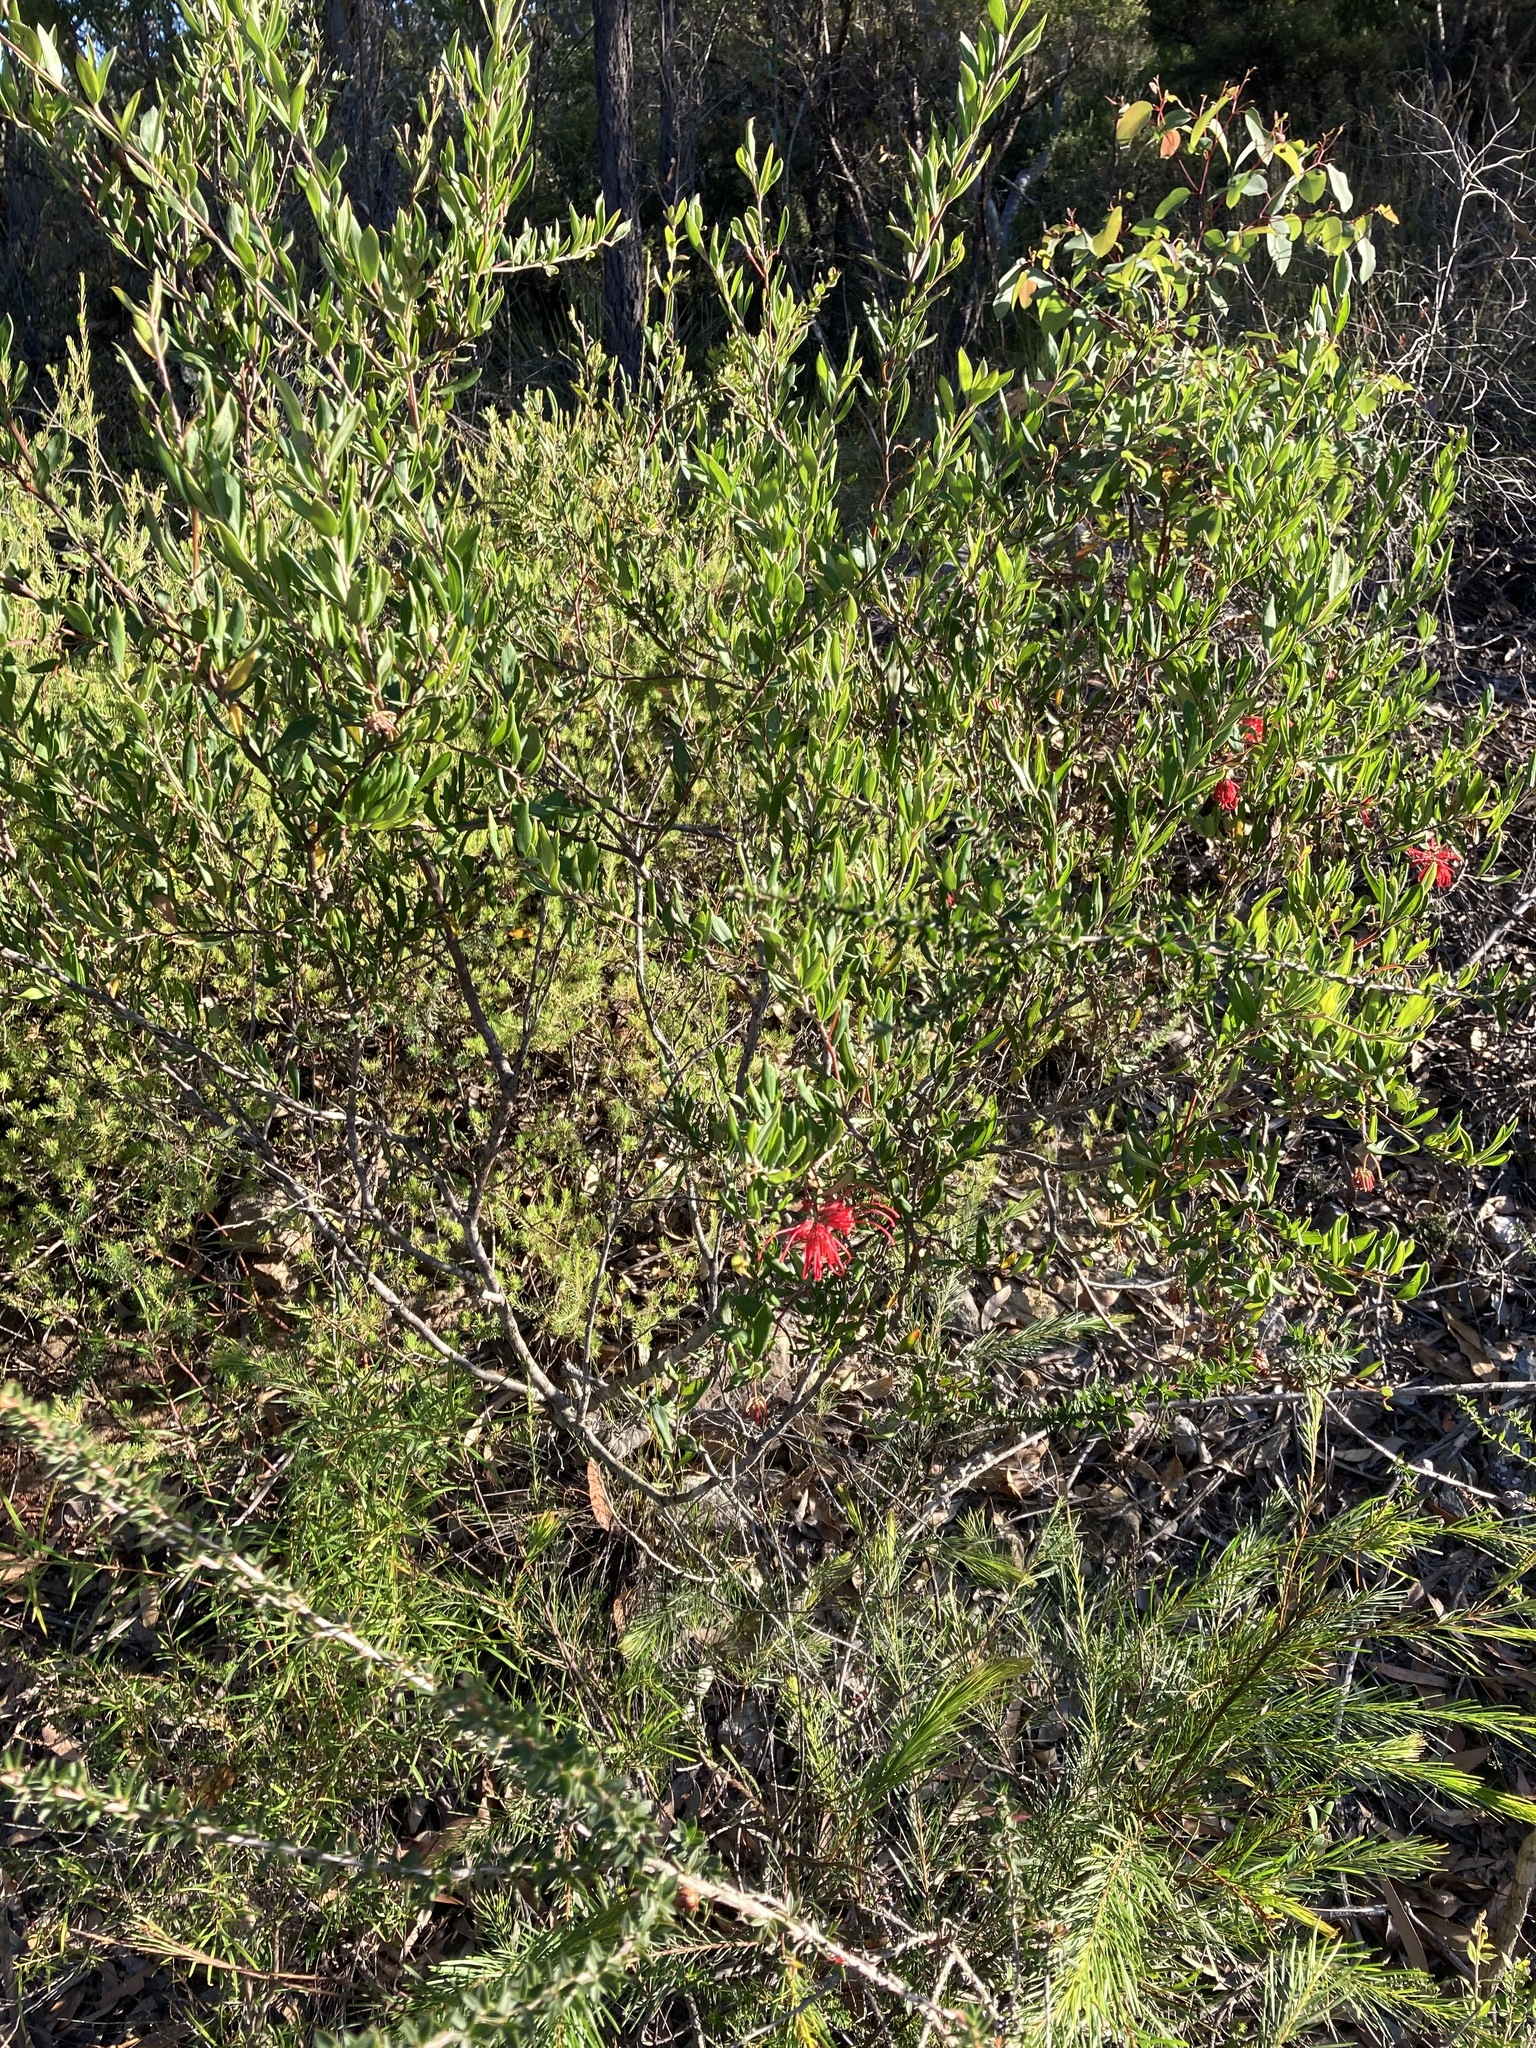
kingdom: Plantae
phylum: Tracheophyta
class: Magnoliopsida
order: Proteales
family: Proteaceae
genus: Grevillea
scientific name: Grevillea speciosa
